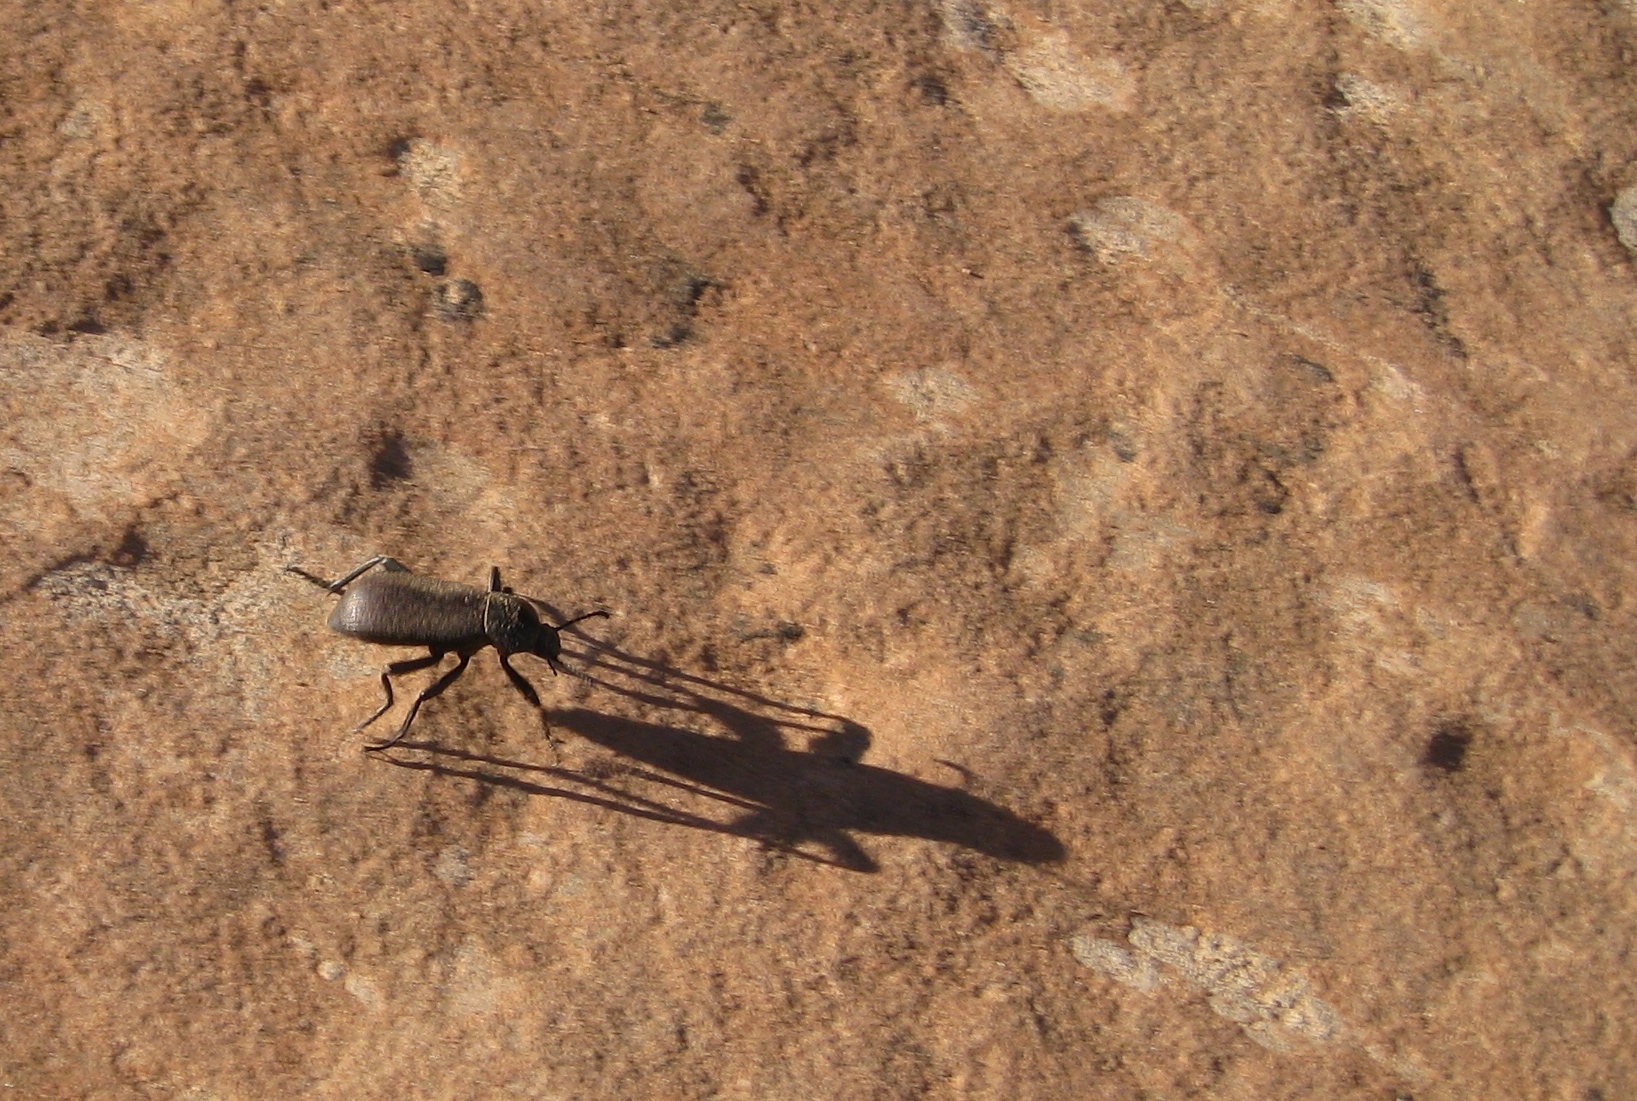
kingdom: Animalia
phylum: Arthropoda
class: Insecta
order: Coleoptera
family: Tenebrionidae
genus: Eleodes
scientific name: Eleodes obscura
